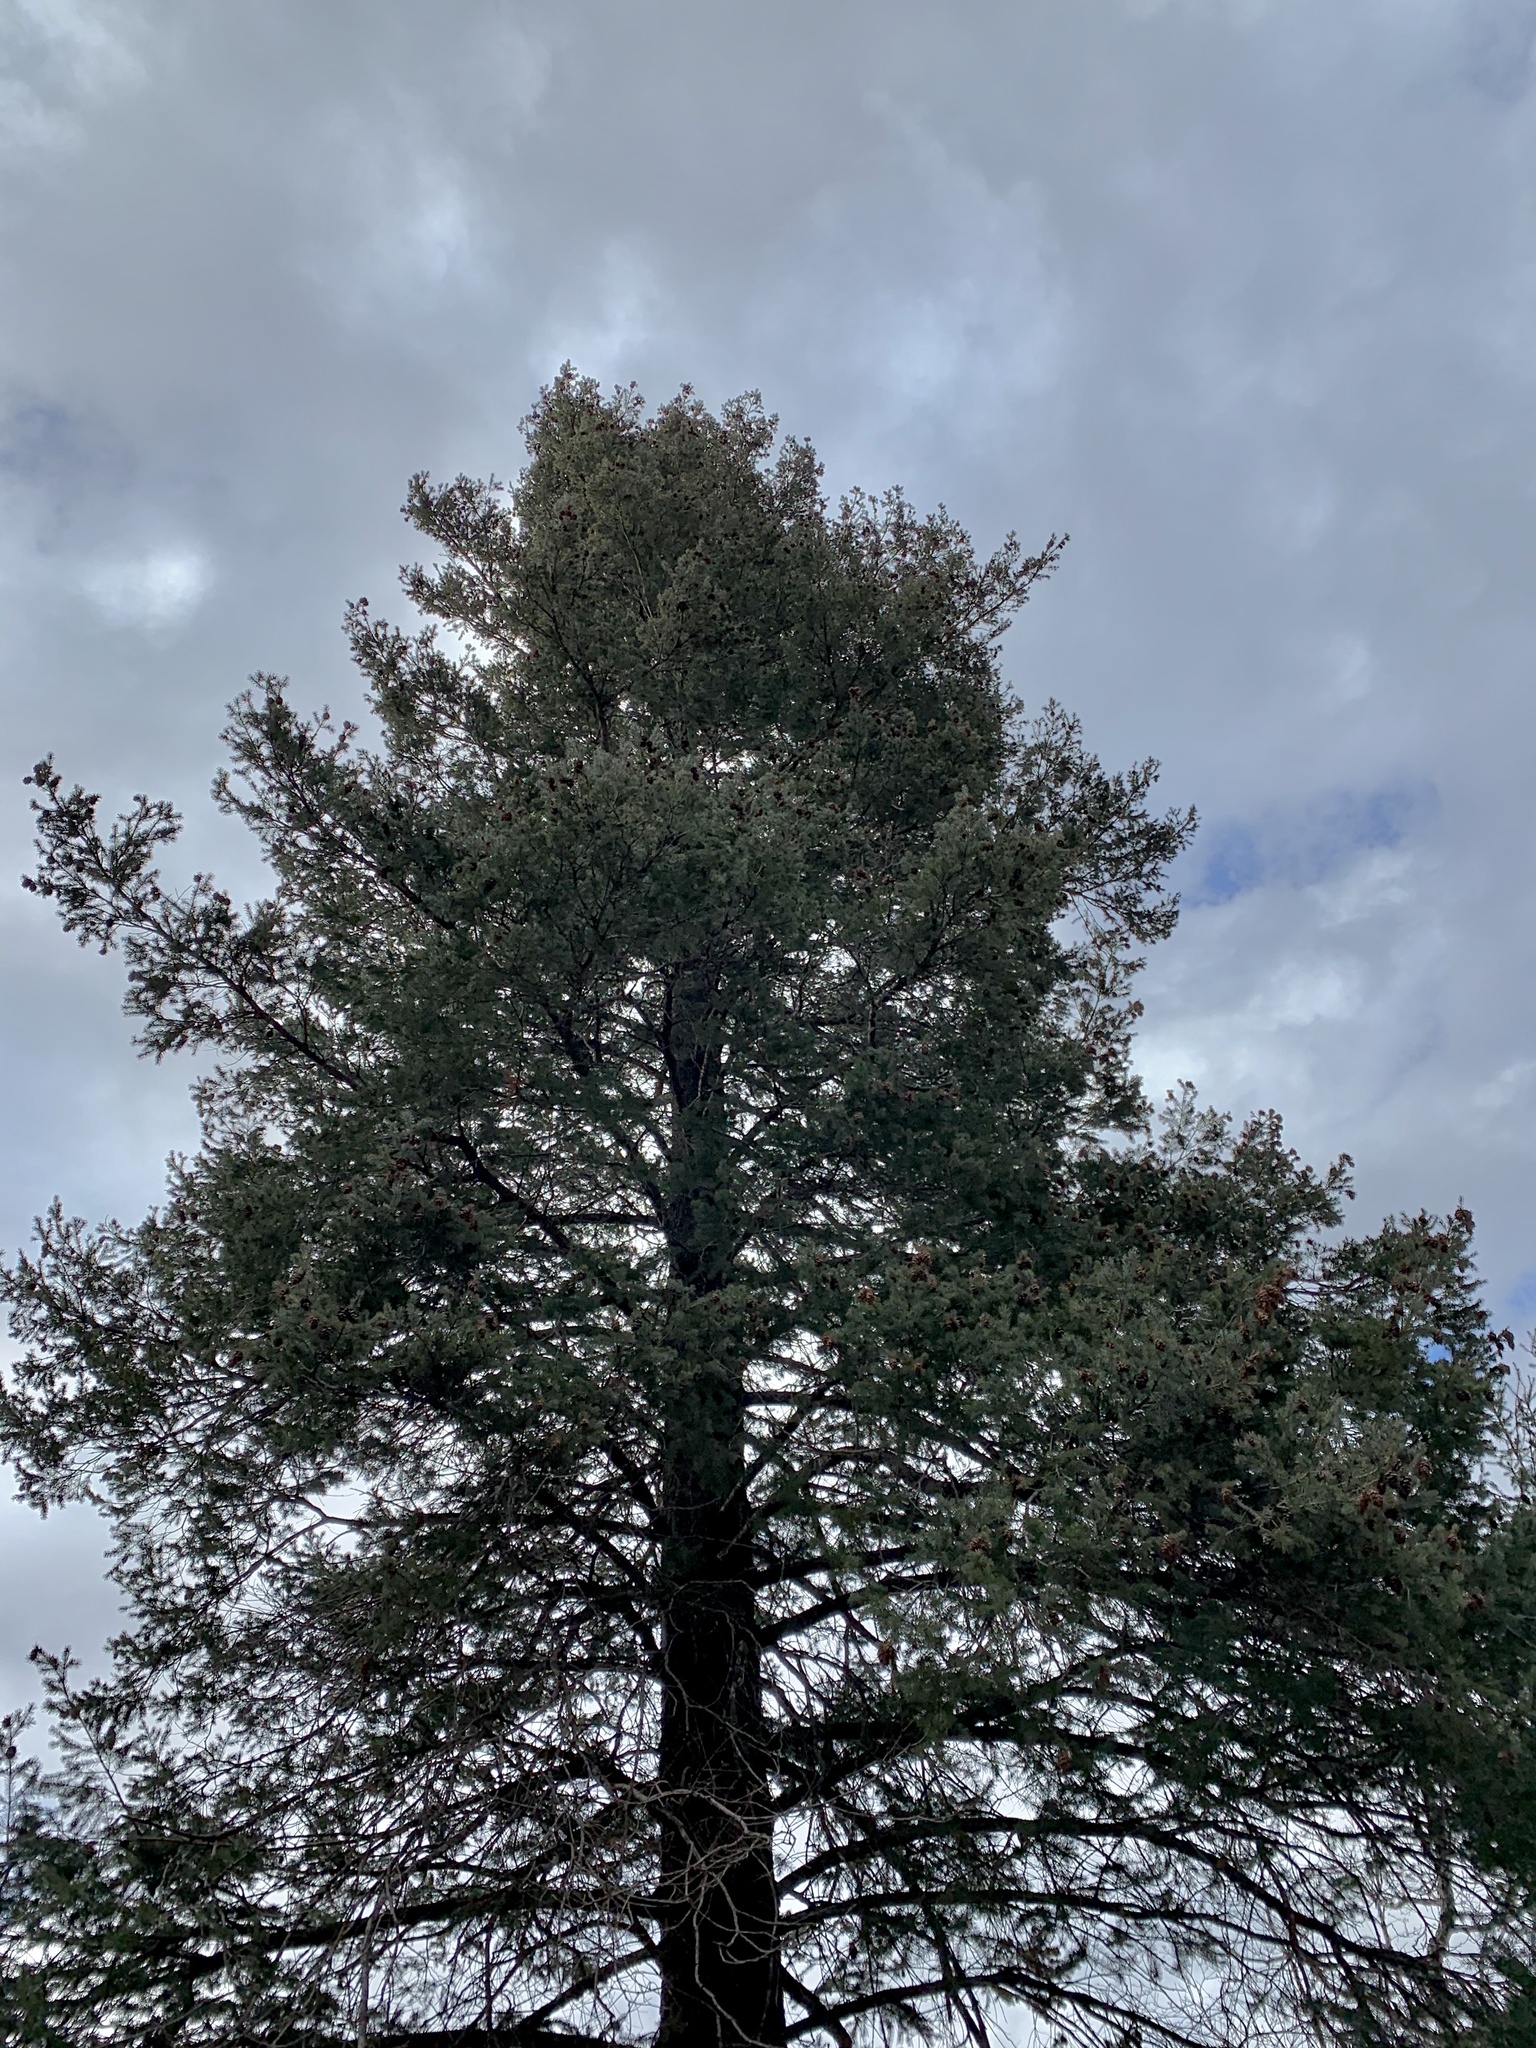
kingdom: Plantae
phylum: Tracheophyta
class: Pinopsida
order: Pinales
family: Pinaceae
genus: Pseudotsuga
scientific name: Pseudotsuga menziesii
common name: Douglas fir
